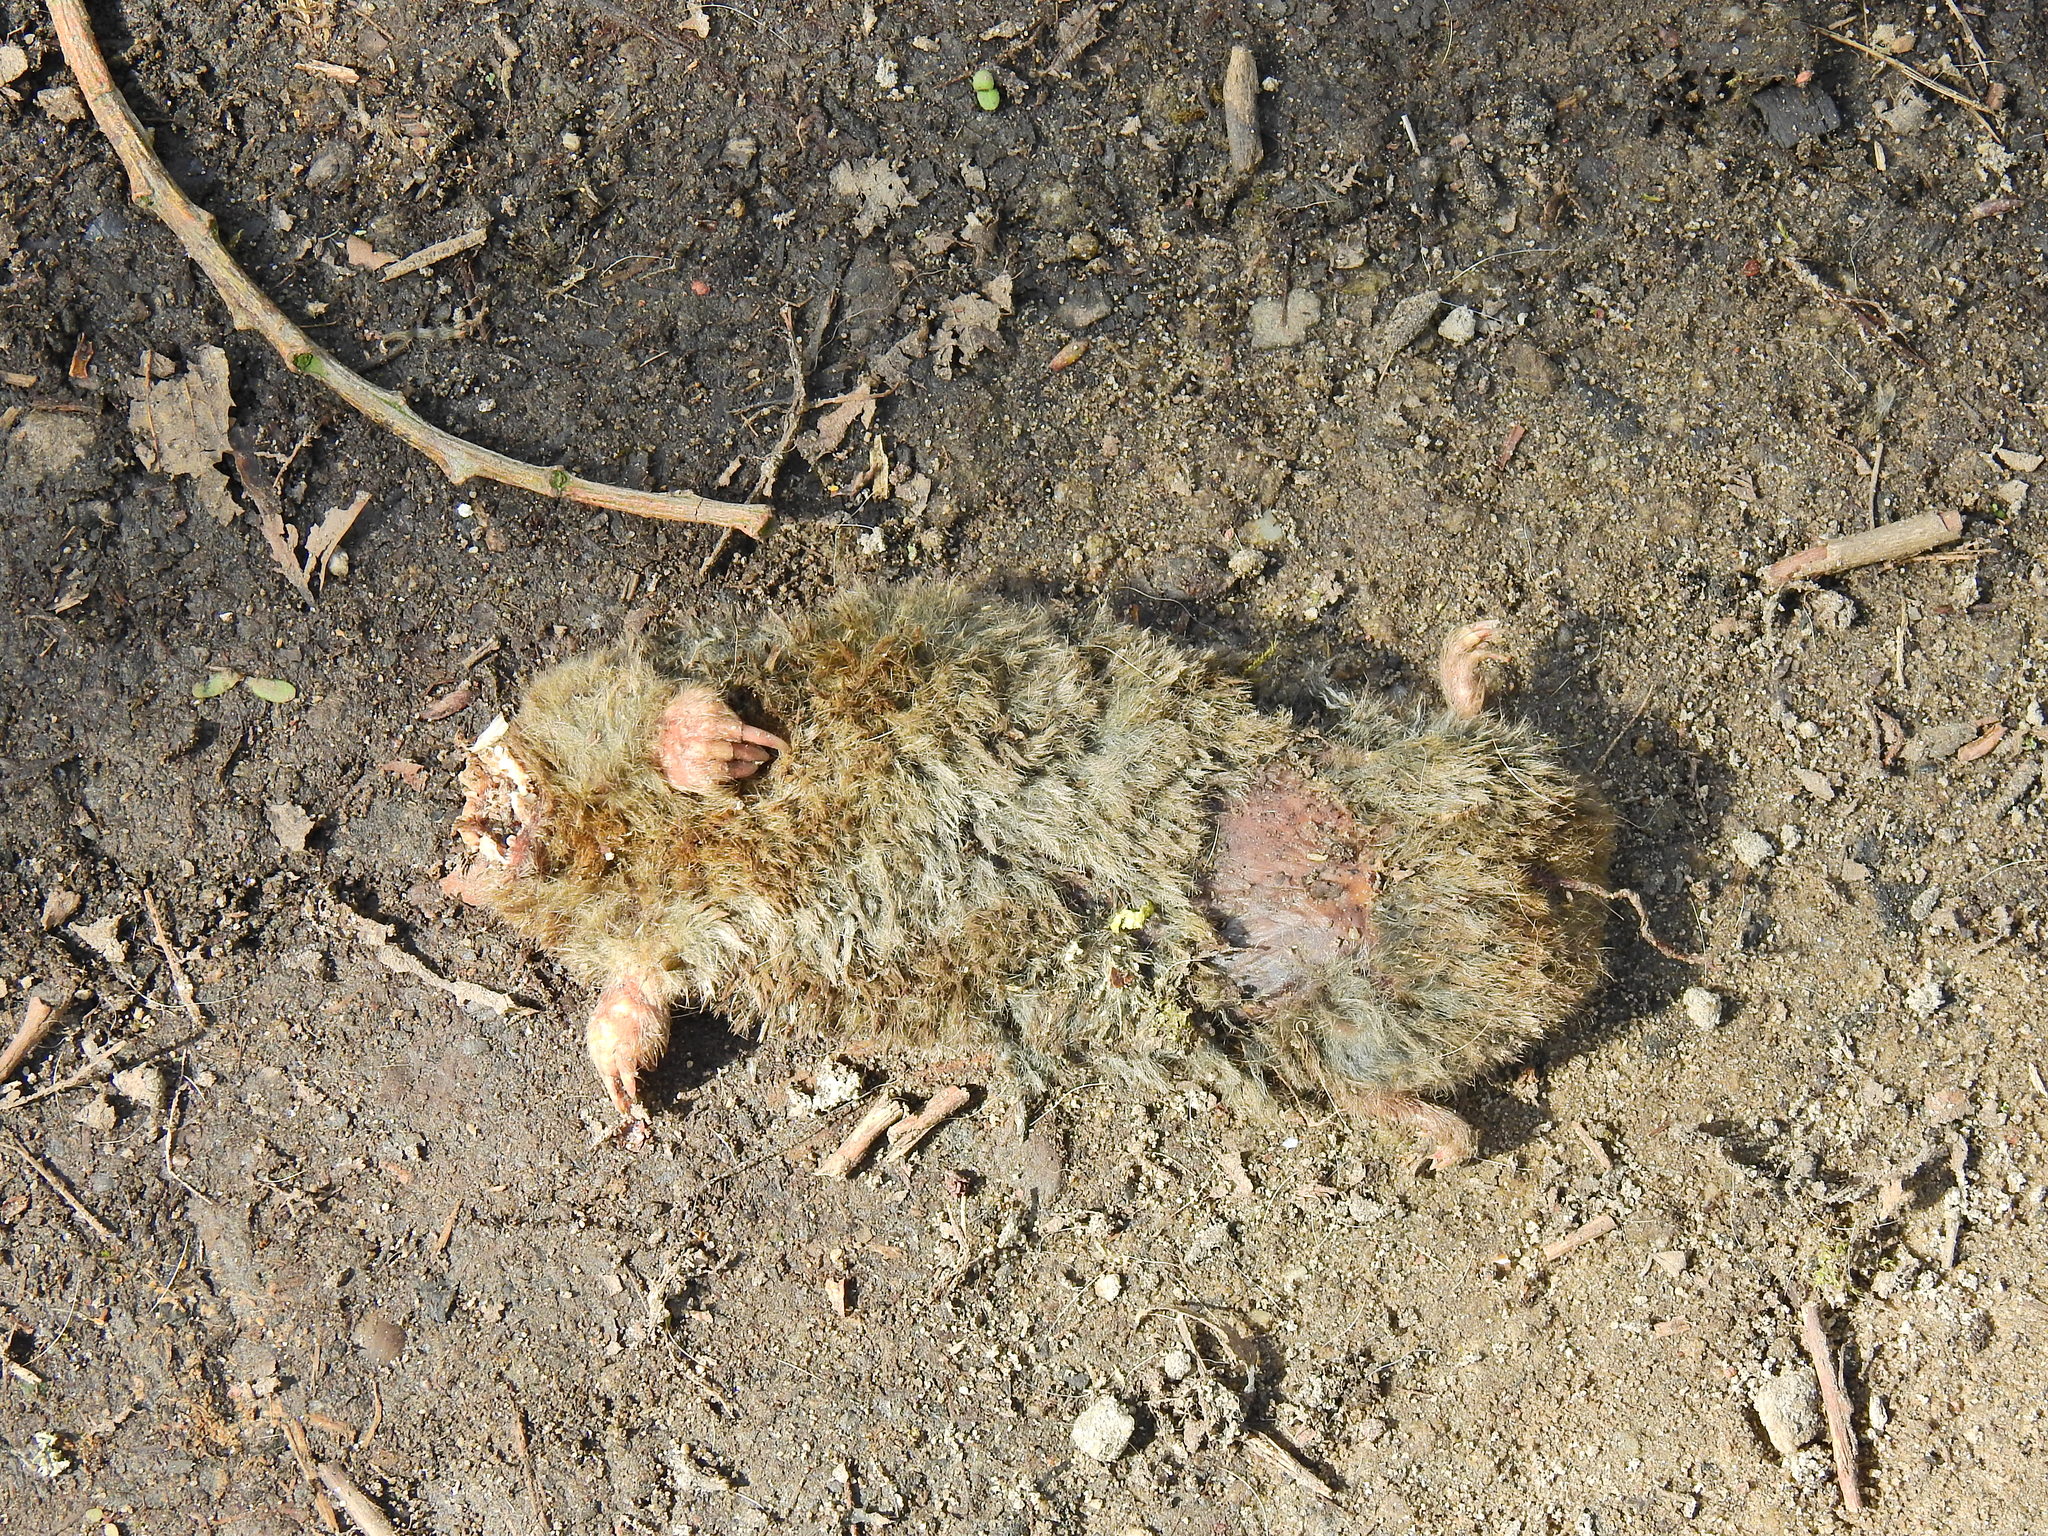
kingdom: Animalia
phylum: Chordata
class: Mammalia
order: Soricomorpha
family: Talpidae
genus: Talpa
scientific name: Talpa europaea
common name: European mole
